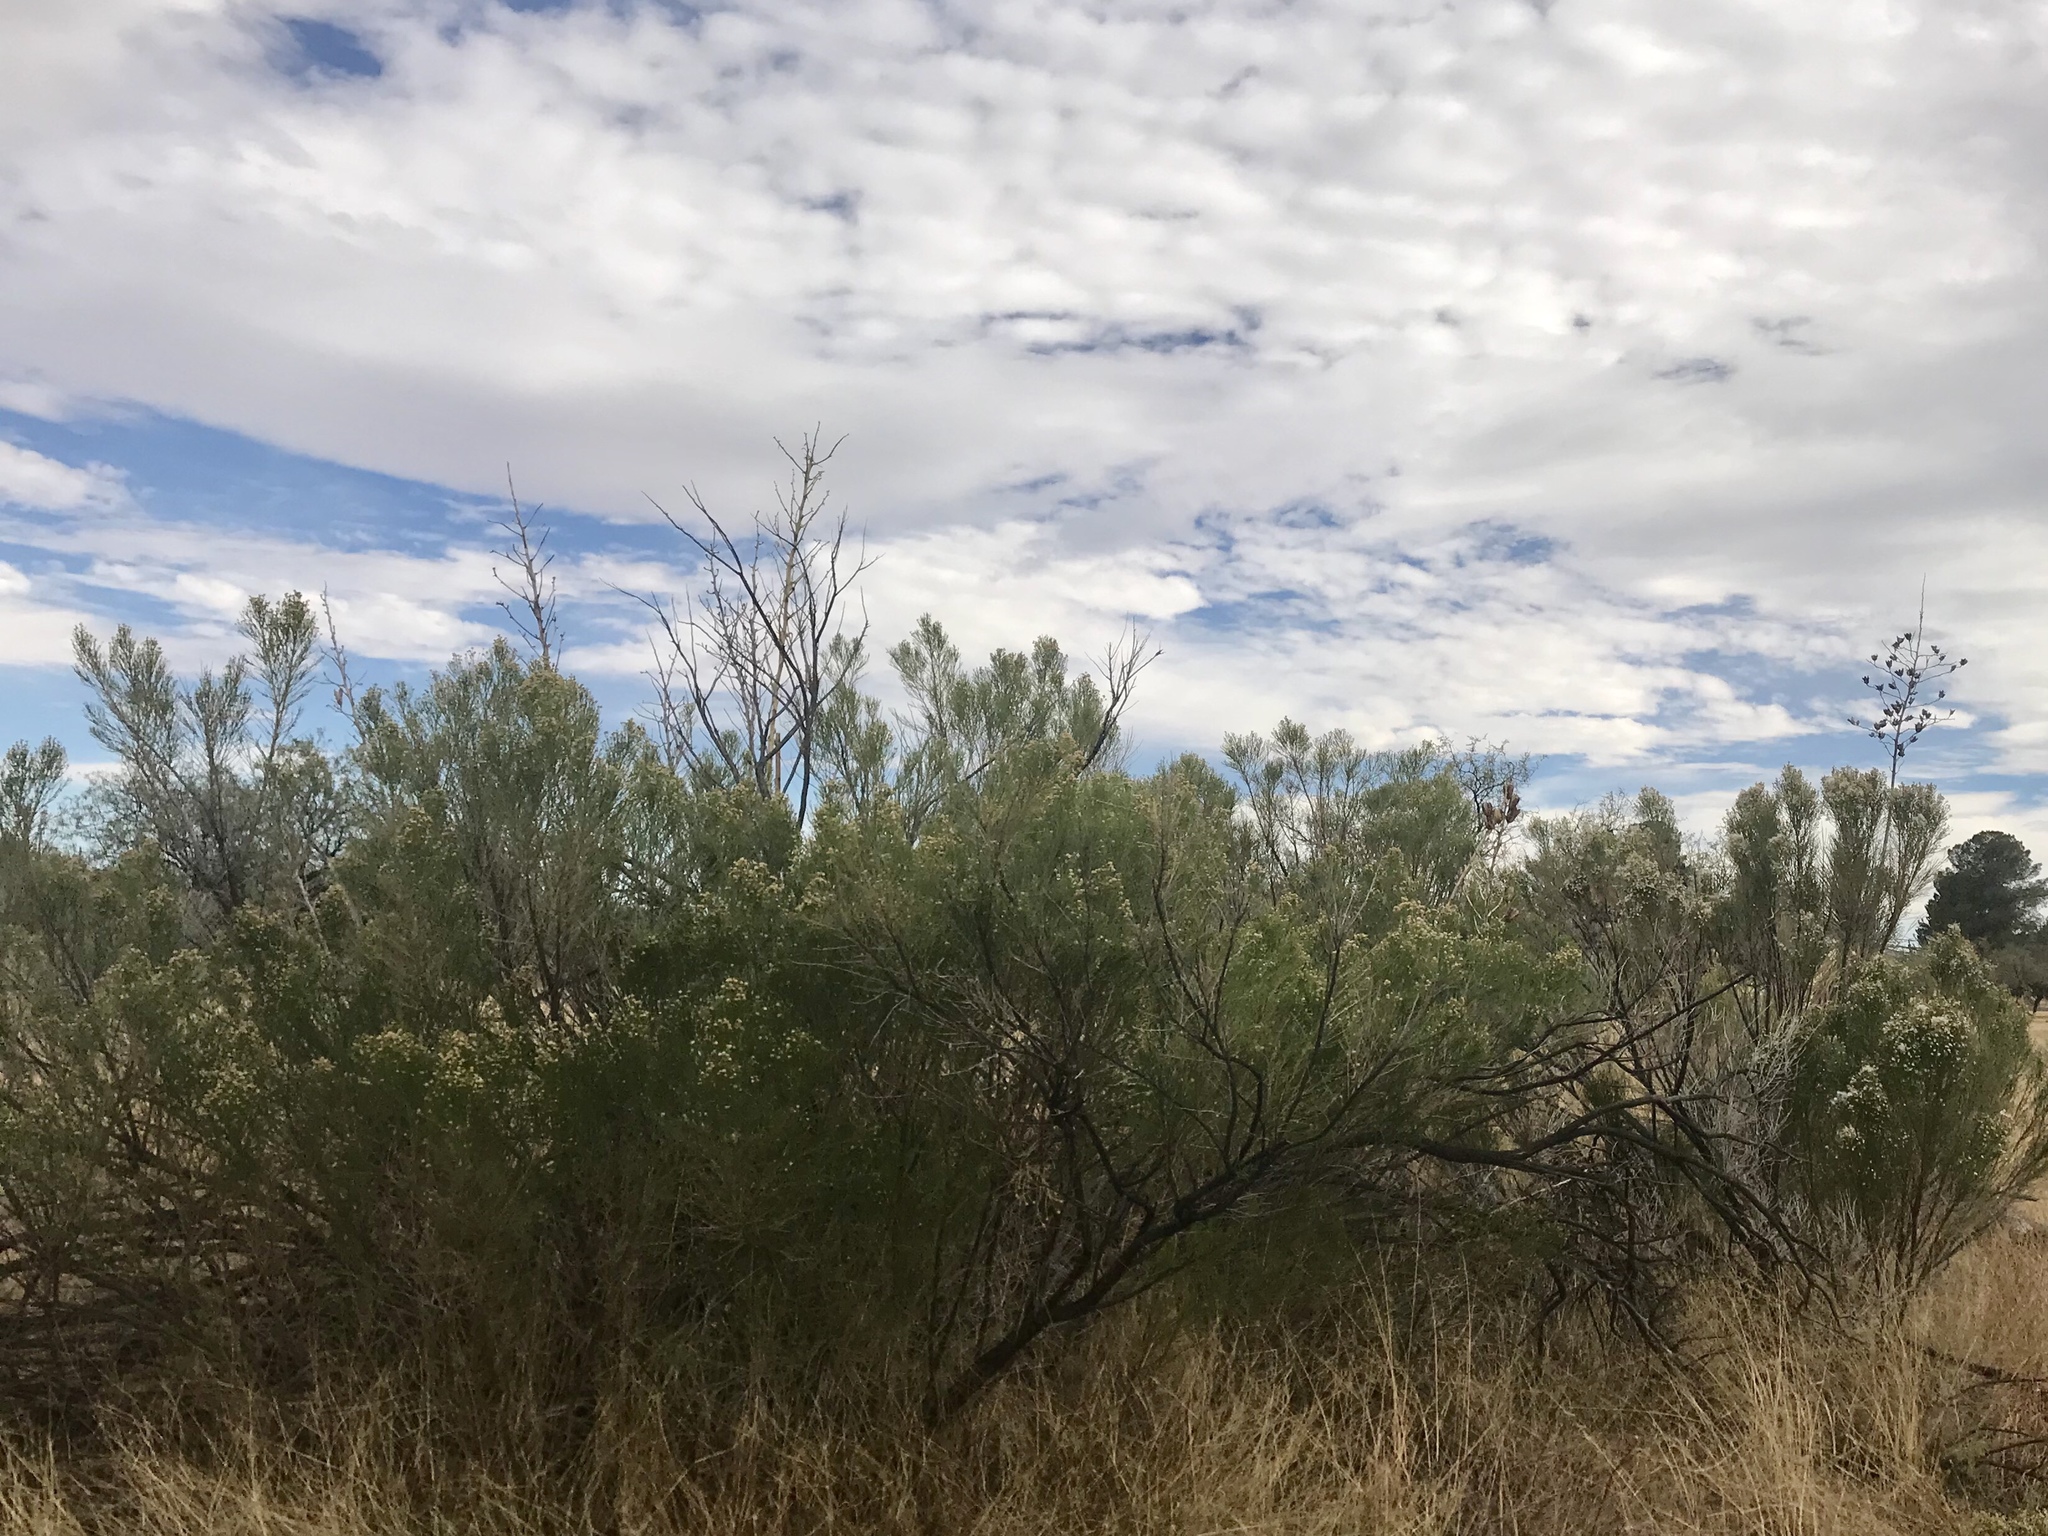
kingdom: Plantae
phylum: Tracheophyta
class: Magnoliopsida
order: Asterales
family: Asteraceae
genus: Baccharis
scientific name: Baccharis sarothroides
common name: Desert-broom
